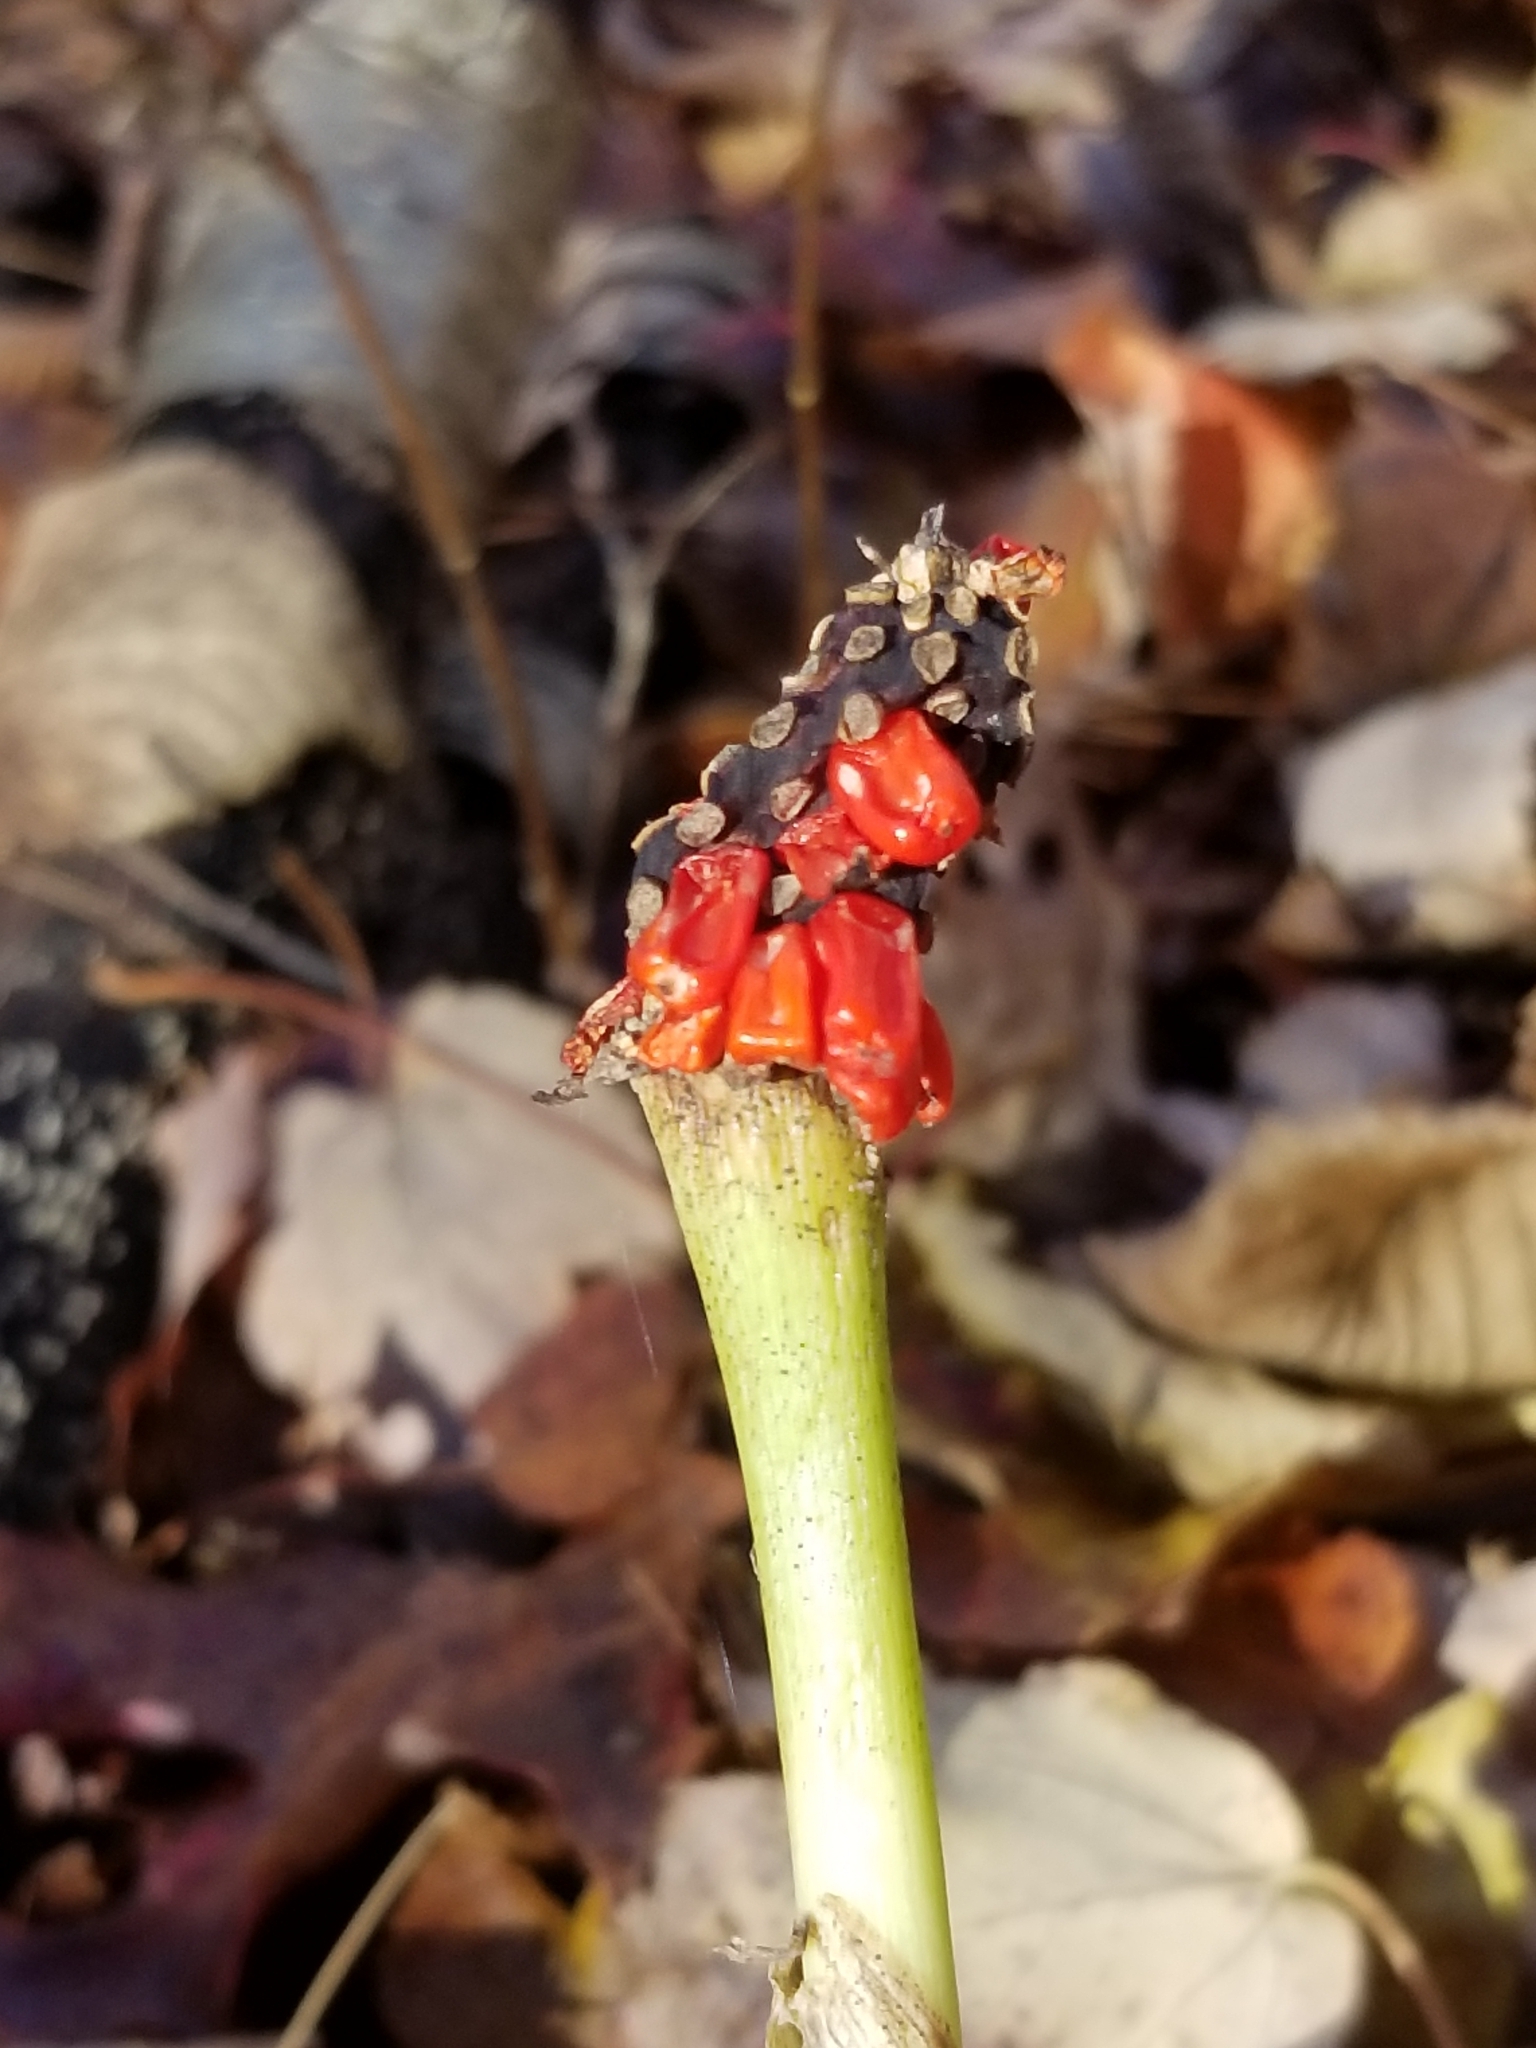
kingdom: Plantae
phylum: Tracheophyta
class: Liliopsida
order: Alismatales
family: Araceae
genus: Arisaema
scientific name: Arisaema triphyllum
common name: Jack-in-the-pulpit
